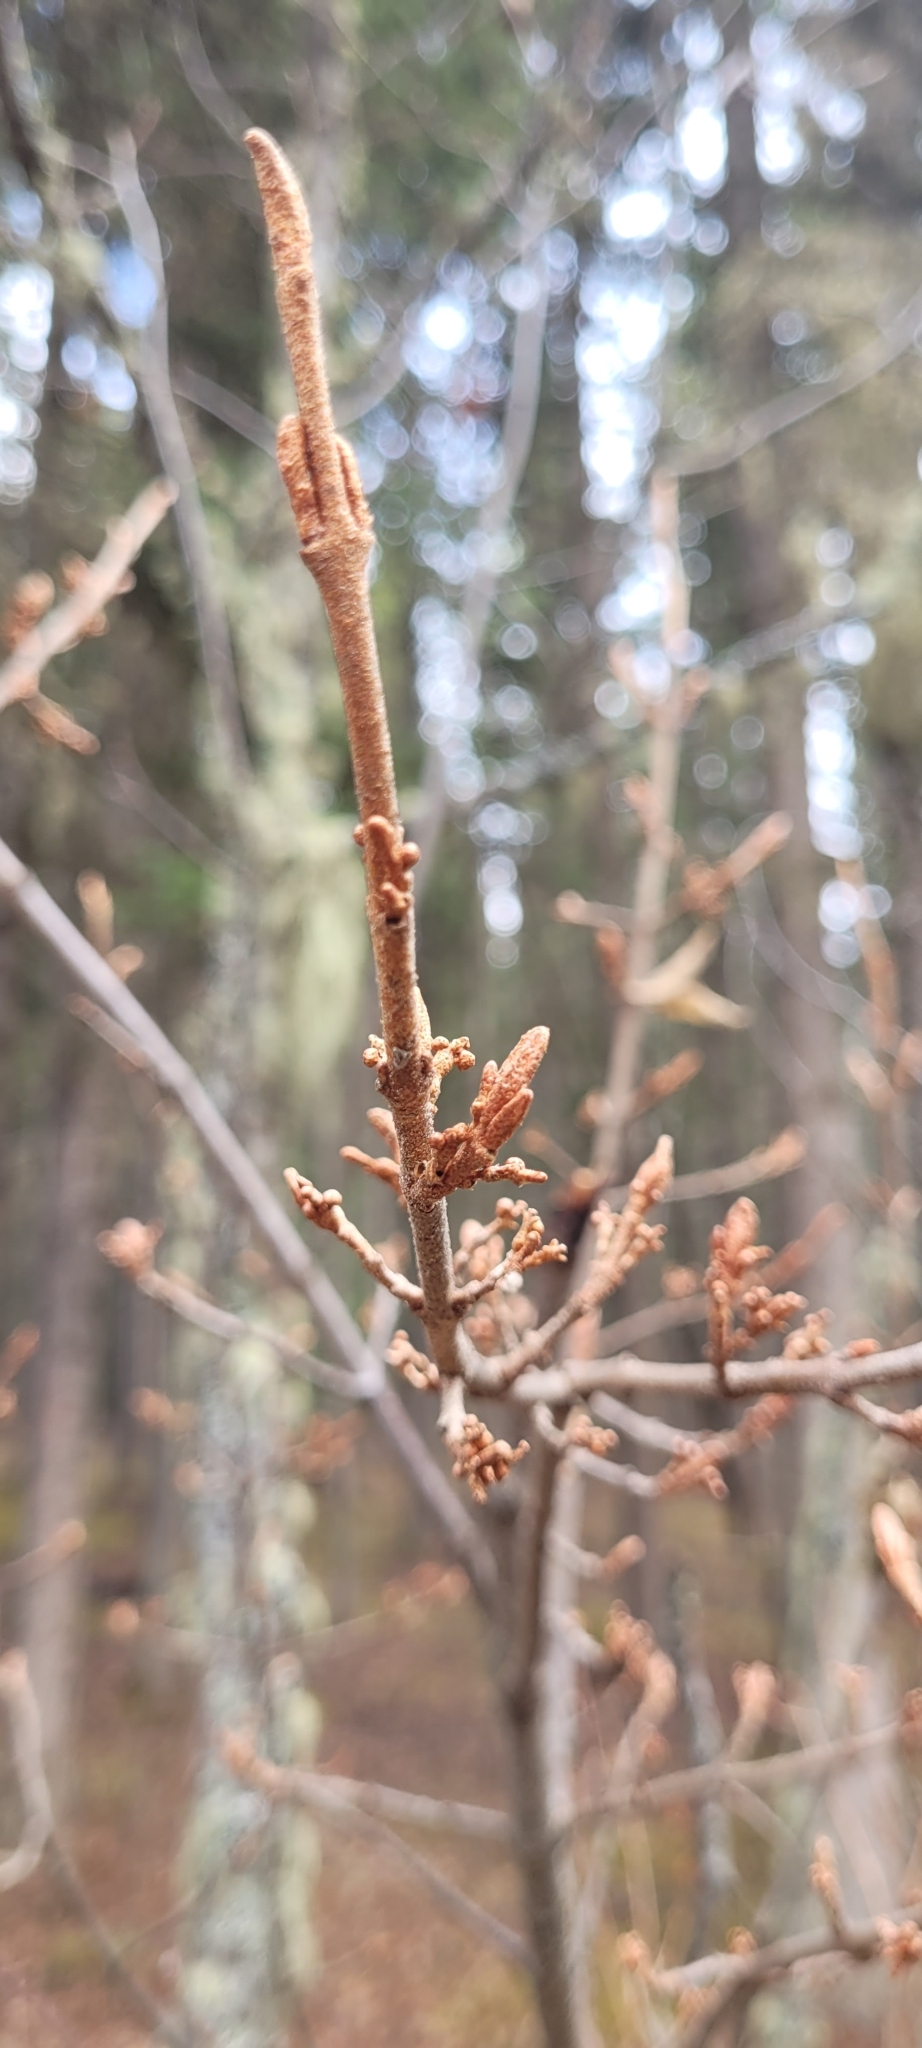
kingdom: Plantae
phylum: Tracheophyta
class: Magnoliopsida
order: Rosales
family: Elaeagnaceae
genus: Shepherdia
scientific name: Shepherdia canadensis
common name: Soapberry
